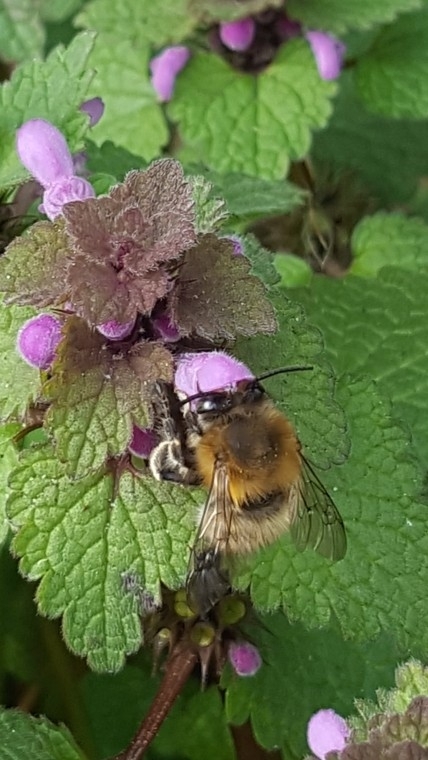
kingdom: Animalia
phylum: Arthropoda
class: Insecta
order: Hymenoptera
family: Apidae
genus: Anthophora
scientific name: Anthophora plumipes
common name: Hairy-footed flower bee
